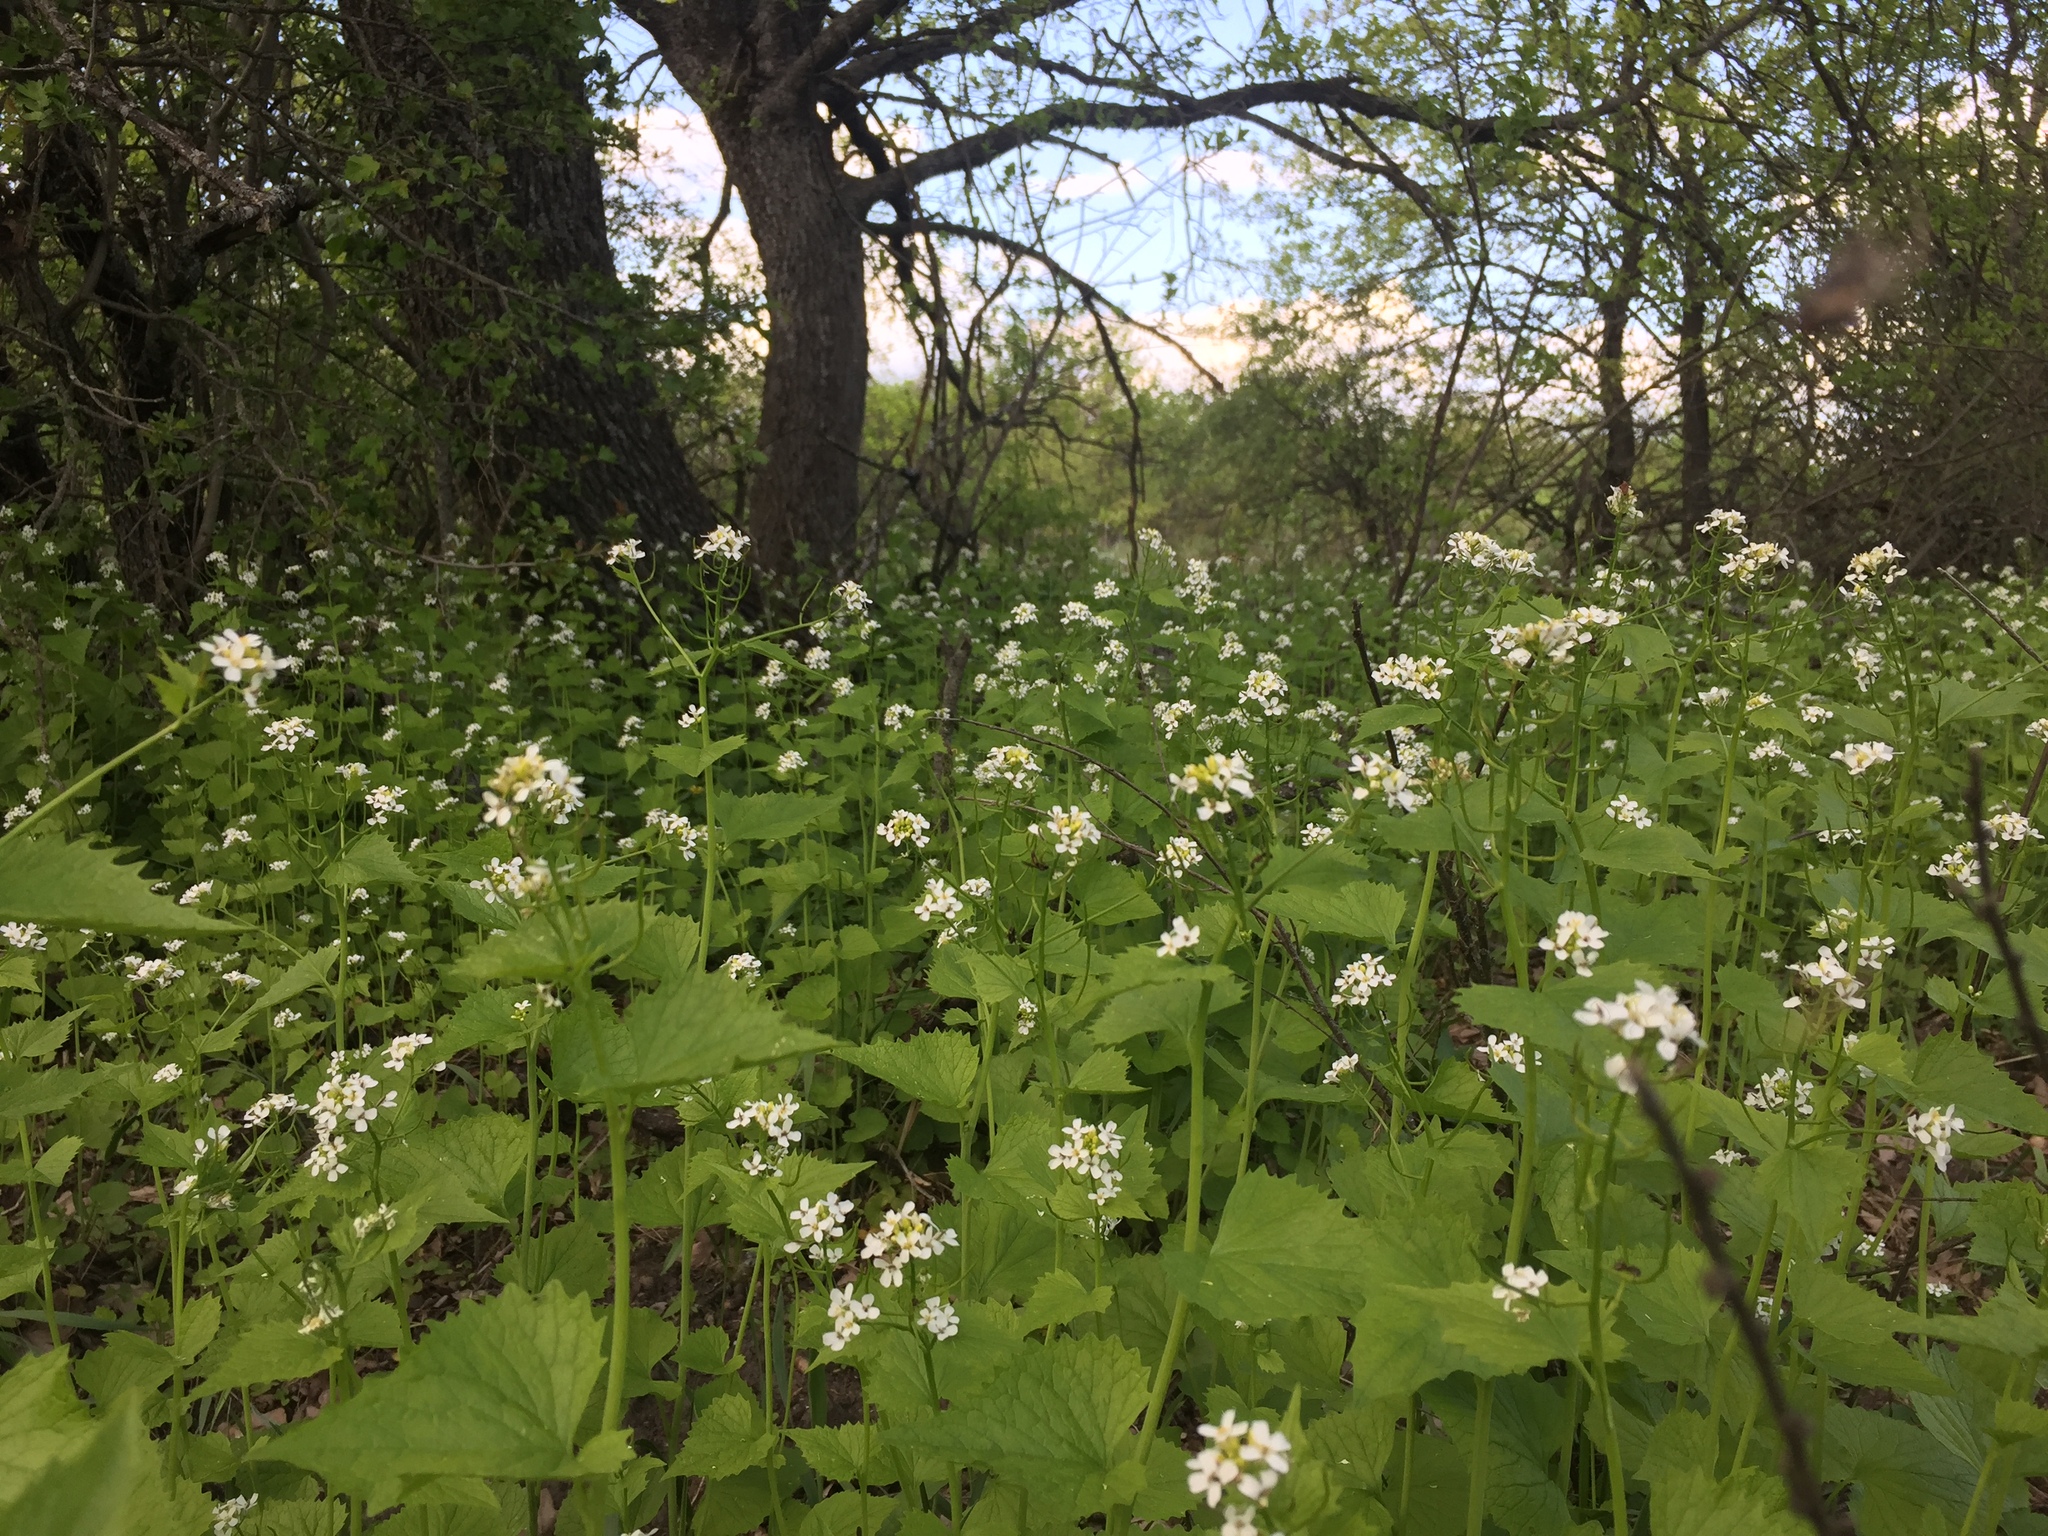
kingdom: Plantae
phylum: Tracheophyta
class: Magnoliopsida
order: Brassicales
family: Brassicaceae
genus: Alliaria
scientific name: Alliaria petiolata
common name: Garlic mustard
